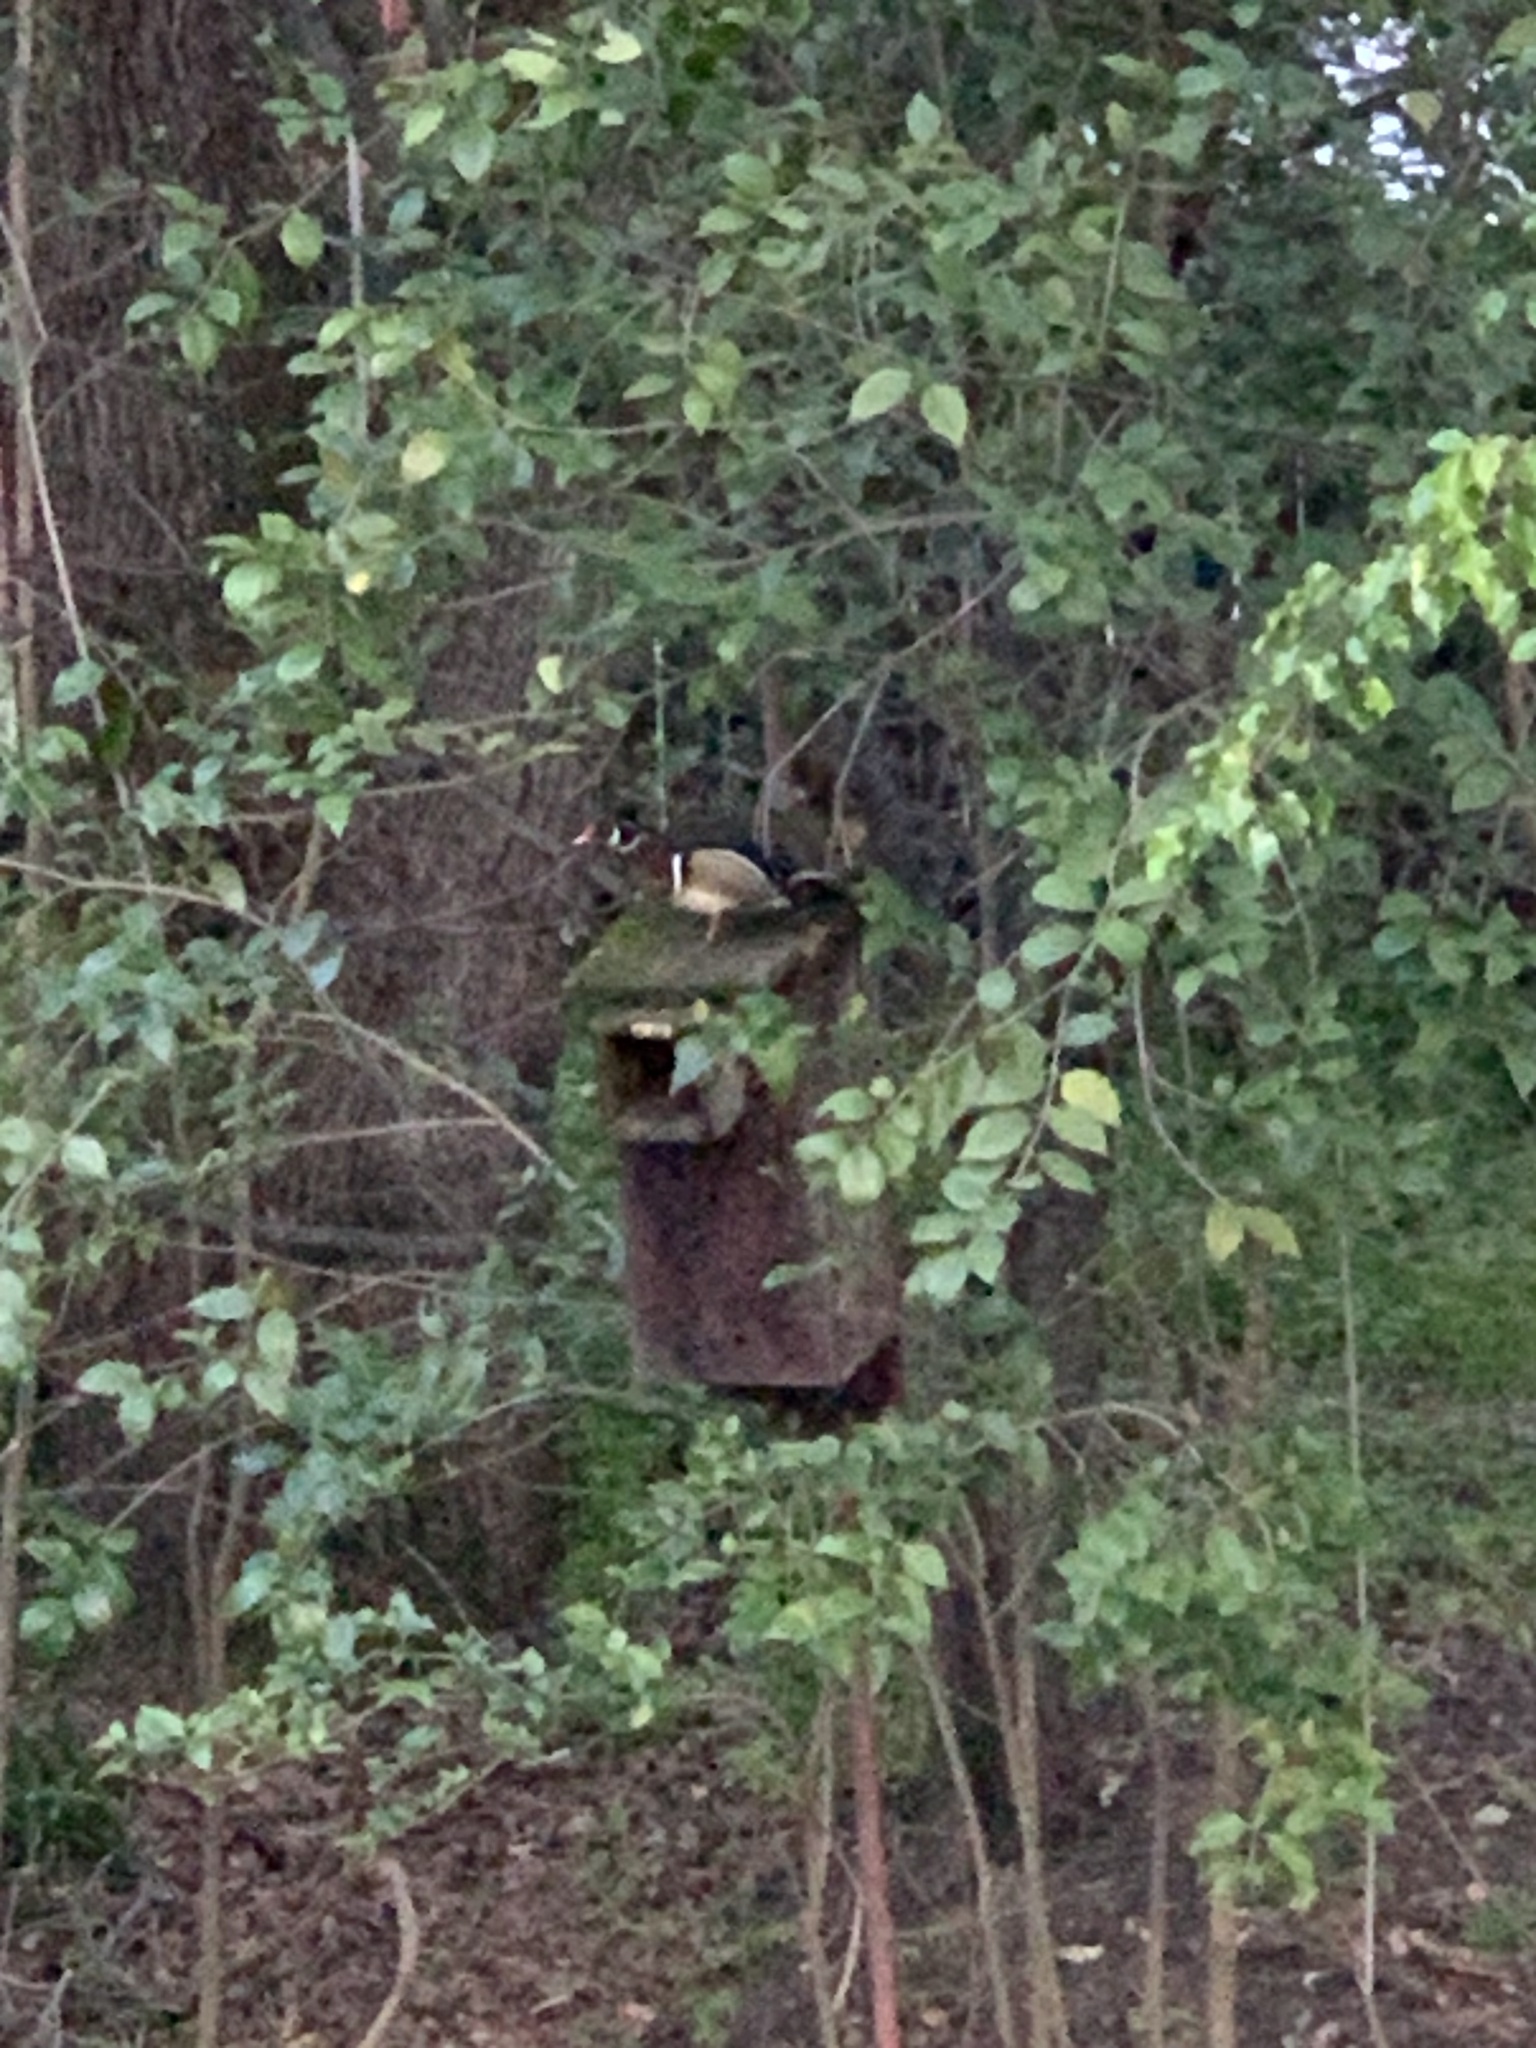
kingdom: Animalia
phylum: Chordata
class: Aves
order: Anseriformes
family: Anatidae
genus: Aix
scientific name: Aix sponsa
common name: Wood duck
